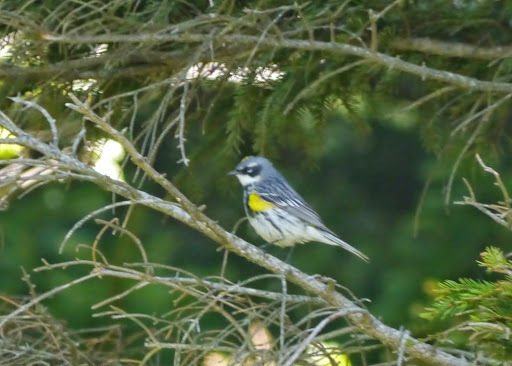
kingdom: Animalia
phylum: Chordata
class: Aves
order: Passeriformes
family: Parulidae
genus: Setophaga
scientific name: Setophaga coronata
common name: Myrtle warbler
